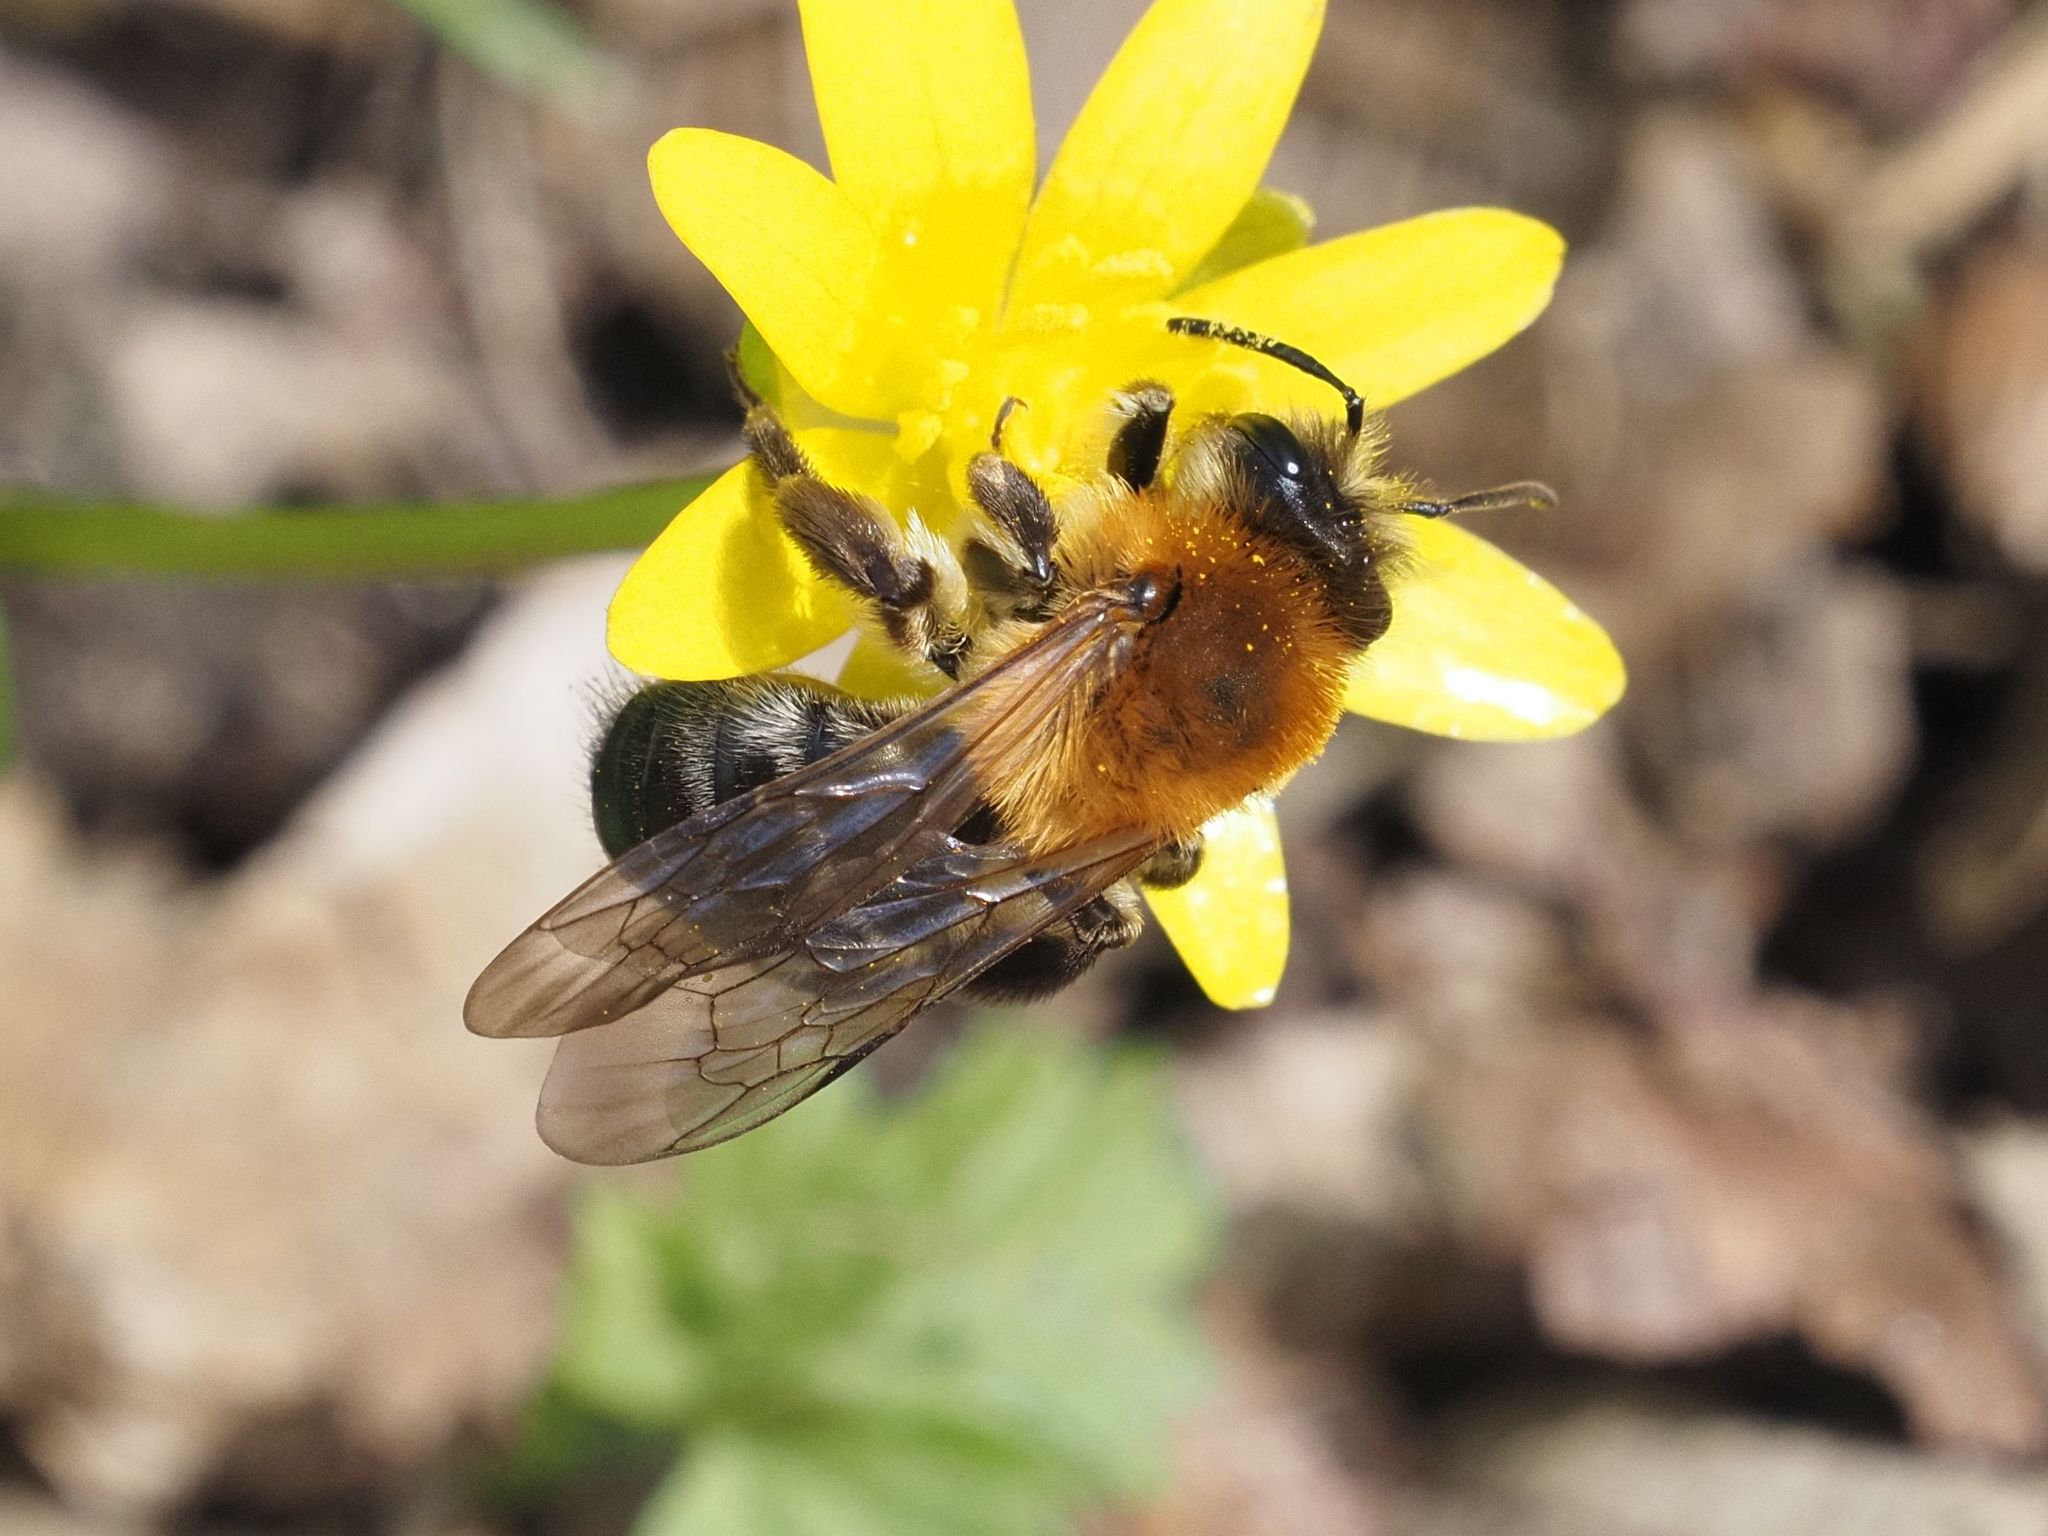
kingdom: Animalia
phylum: Arthropoda
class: Insecta
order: Hymenoptera
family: Andrenidae
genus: Andrena
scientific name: Andrena nitida
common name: Grey-patched mining bee
